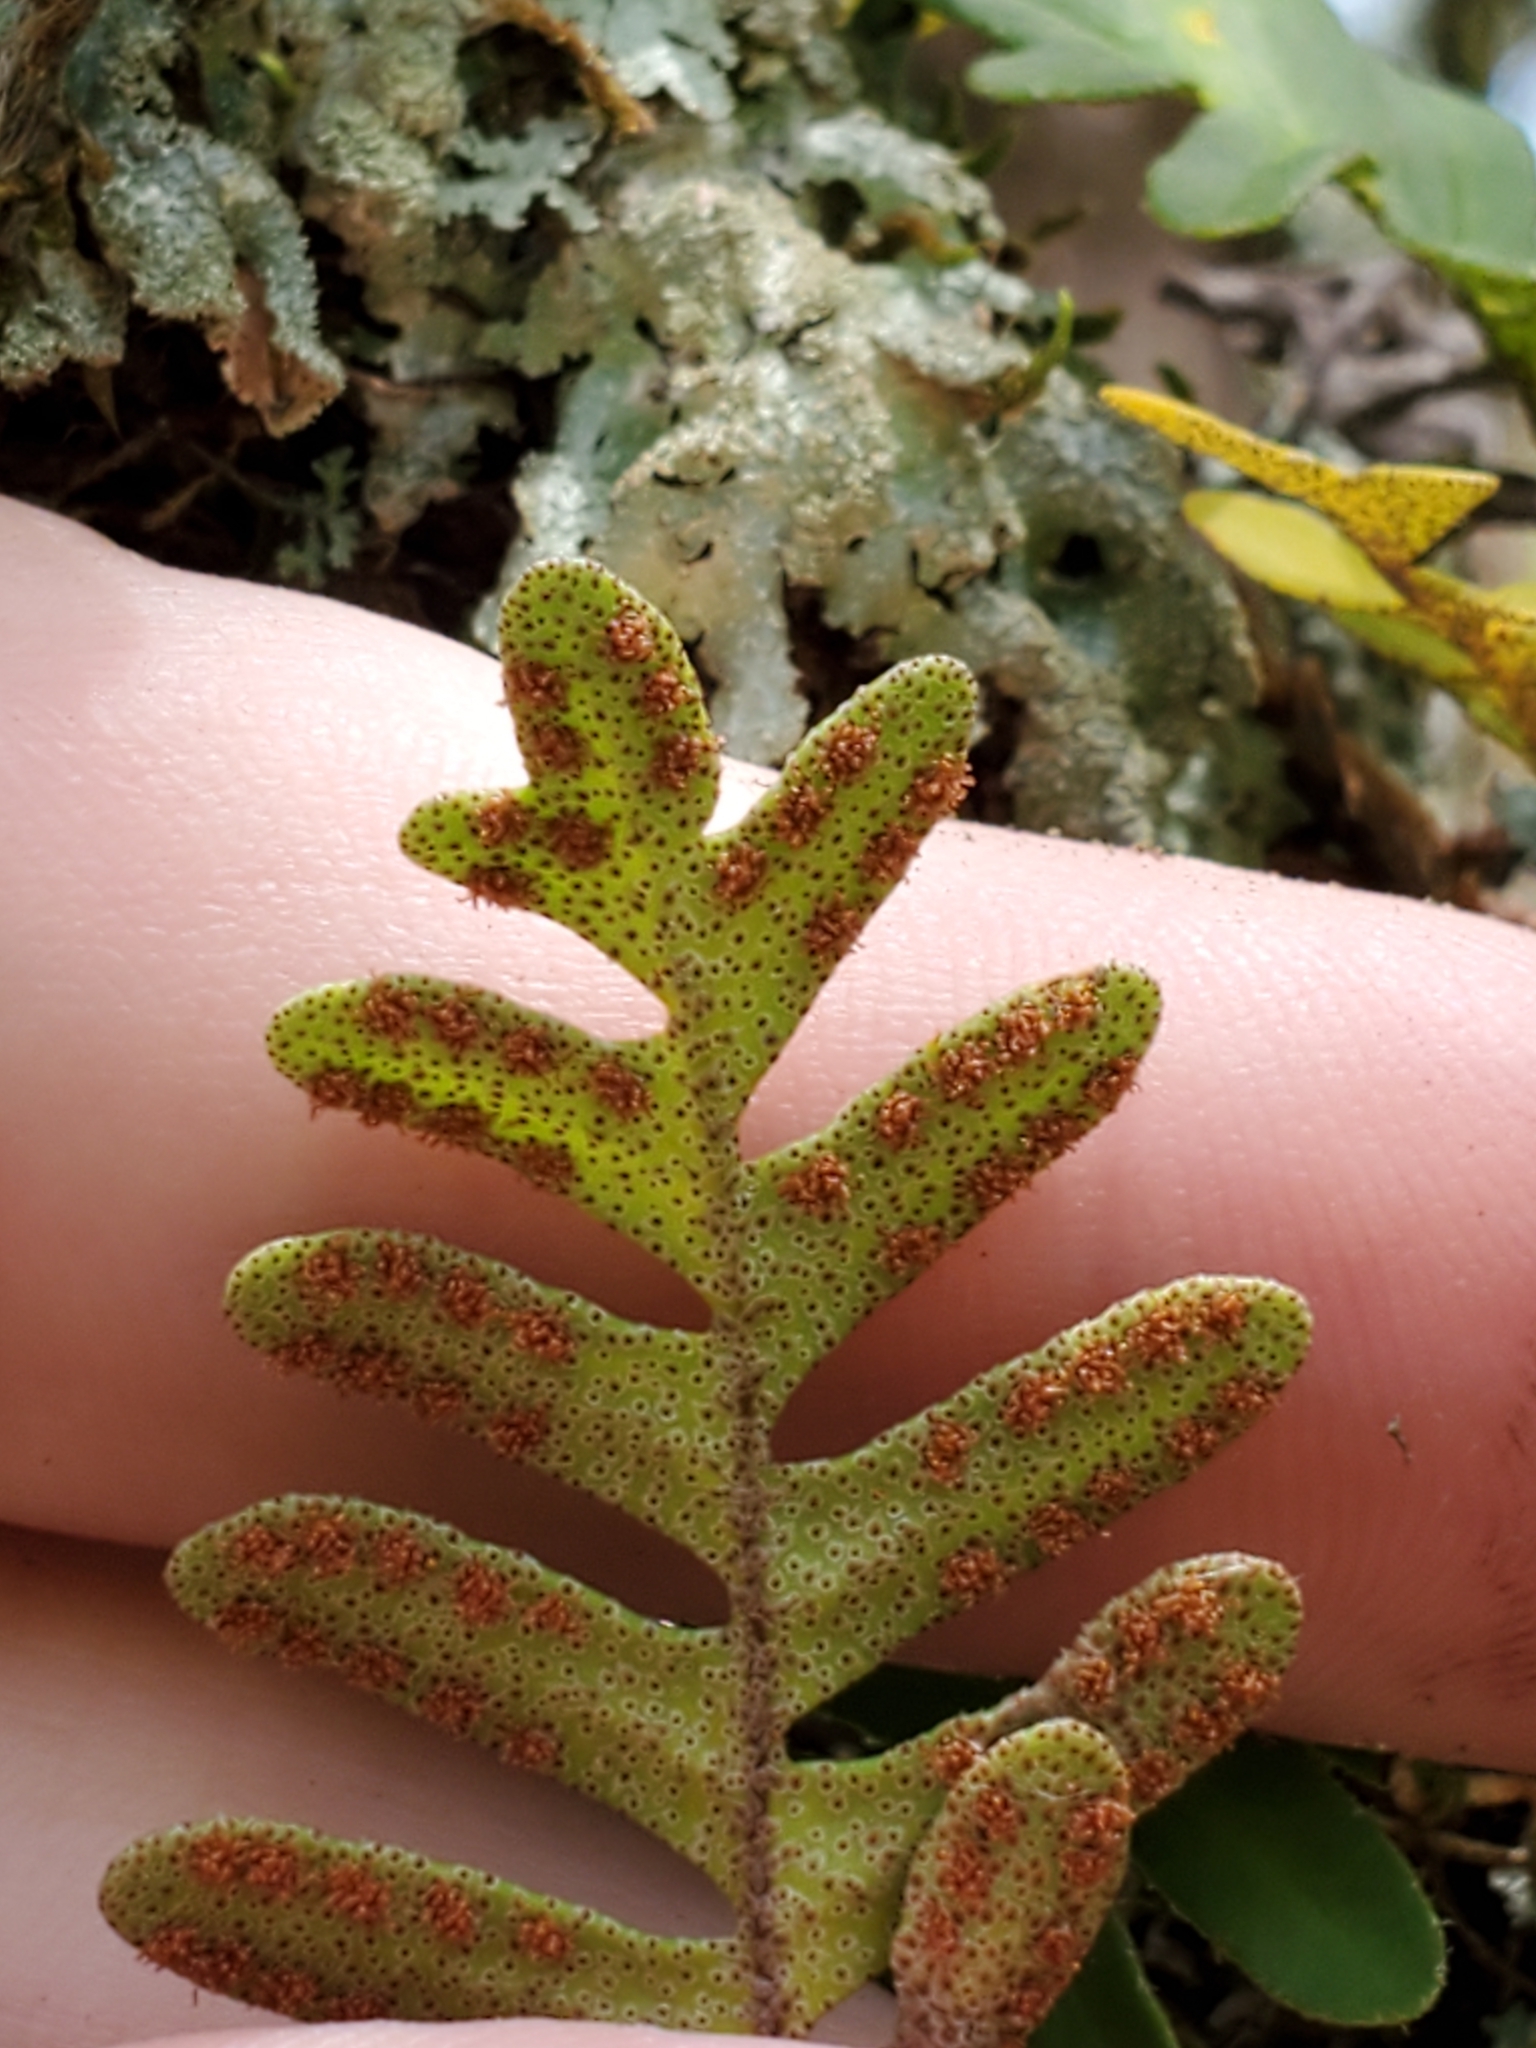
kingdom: Plantae
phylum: Tracheophyta
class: Polypodiopsida
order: Polypodiales
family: Polypodiaceae
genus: Pleopeltis
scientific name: Pleopeltis michauxiana
